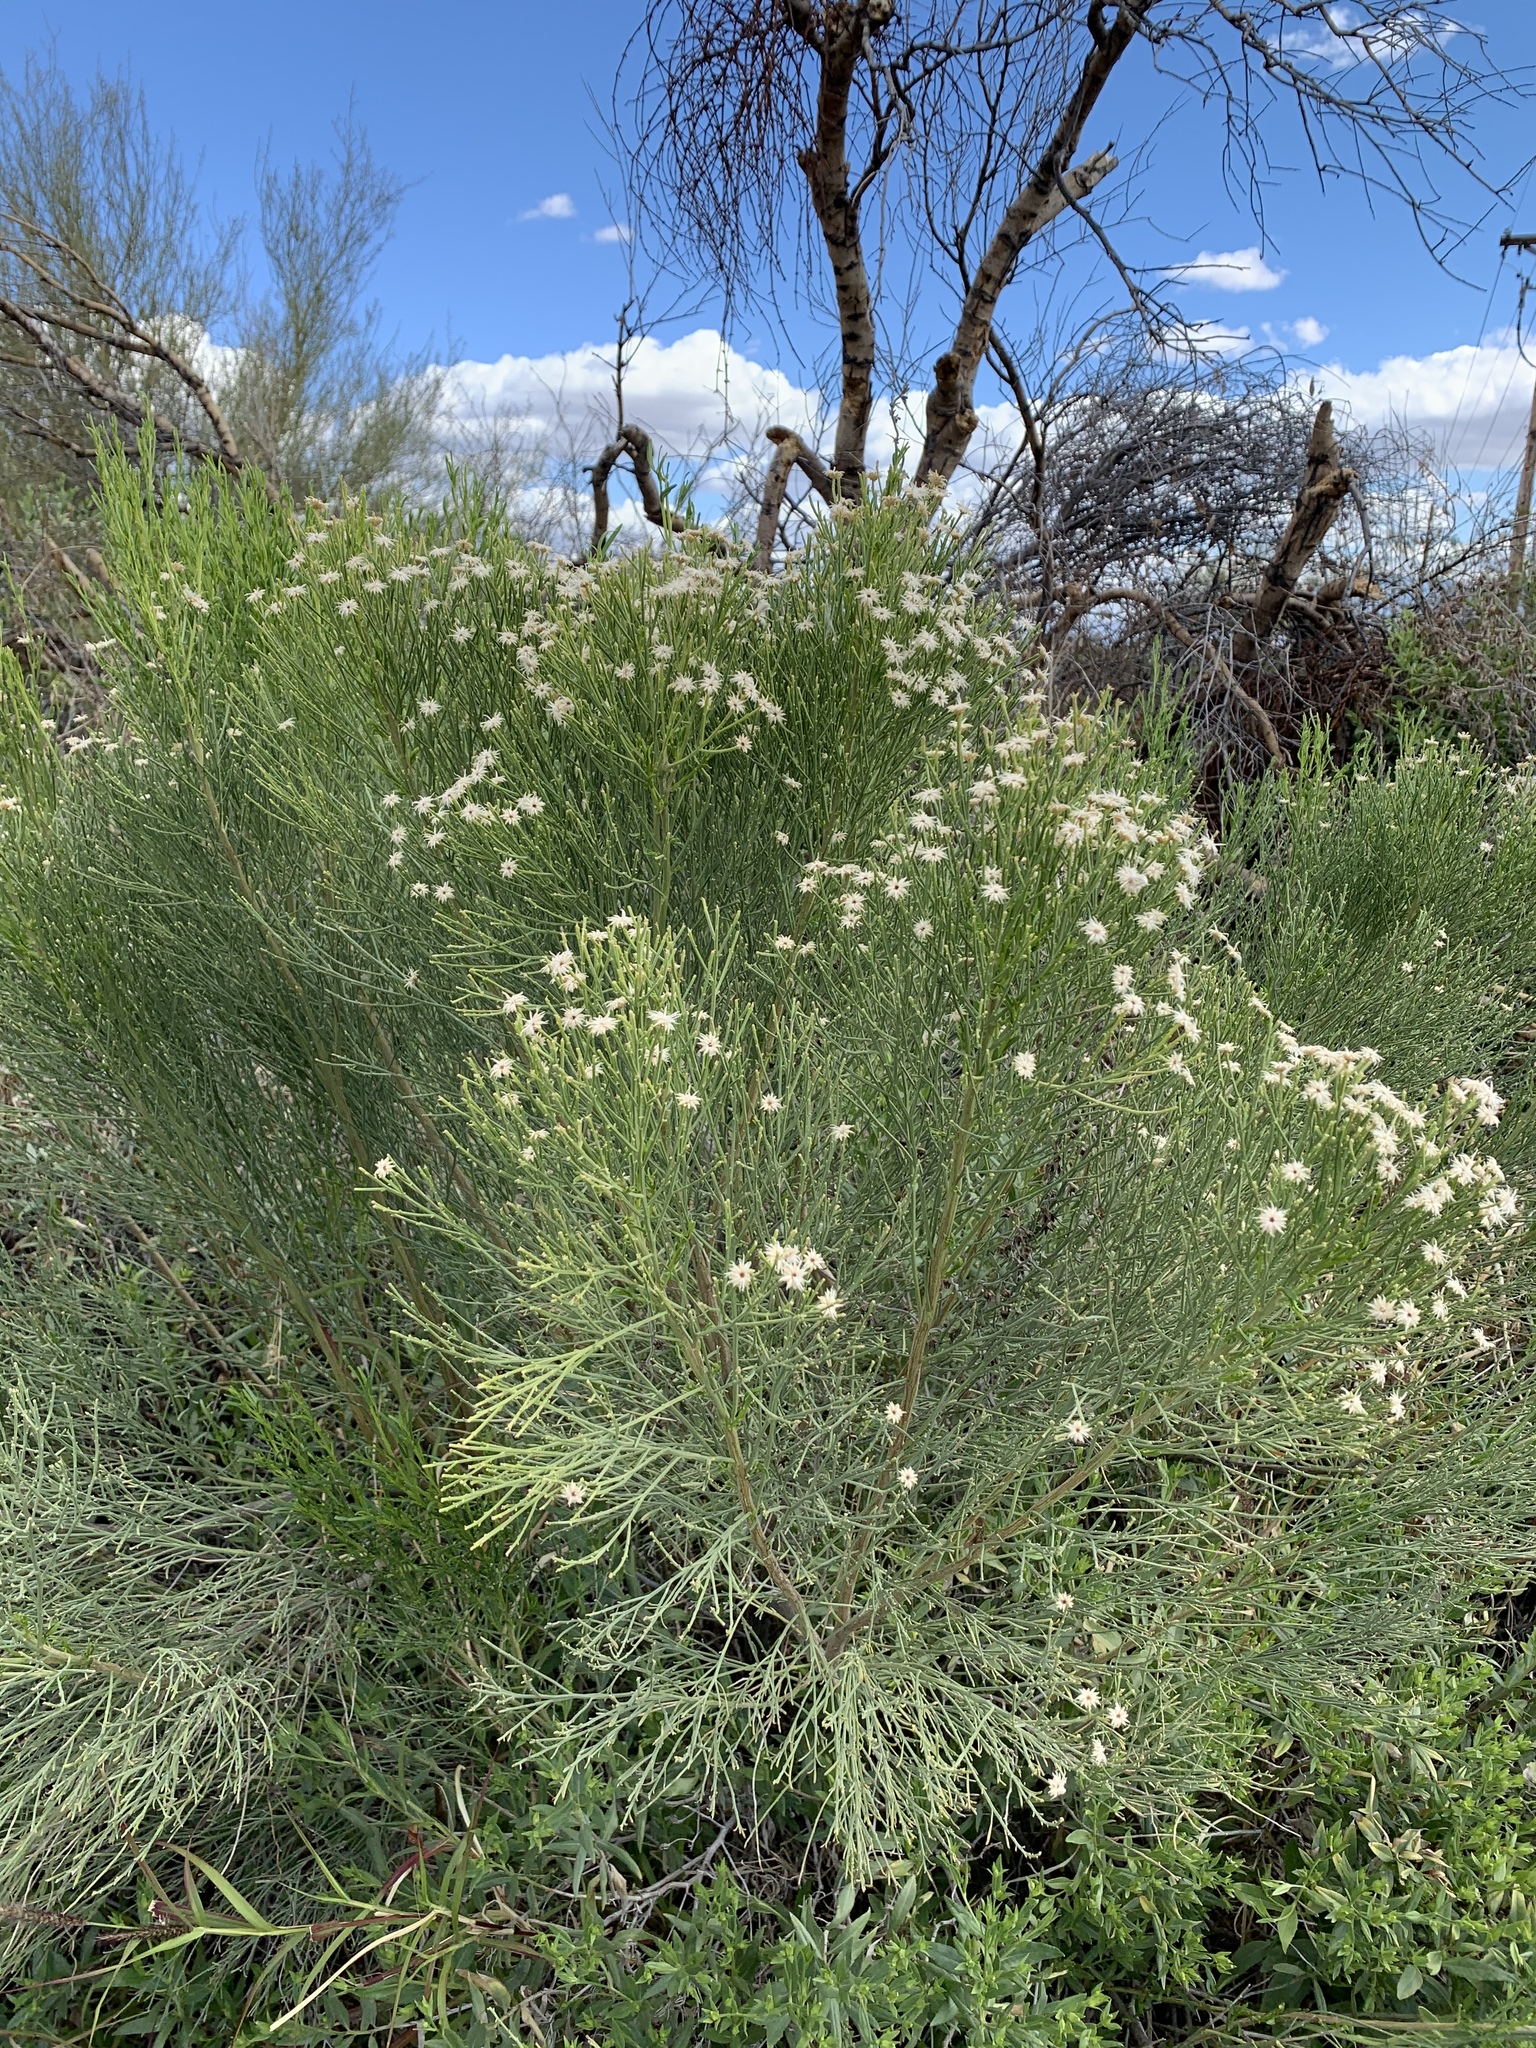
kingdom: Plantae
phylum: Tracheophyta
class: Magnoliopsida
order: Asterales
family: Asteraceae
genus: Baccharis
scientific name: Baccharis sarothroides
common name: Desert-broom
